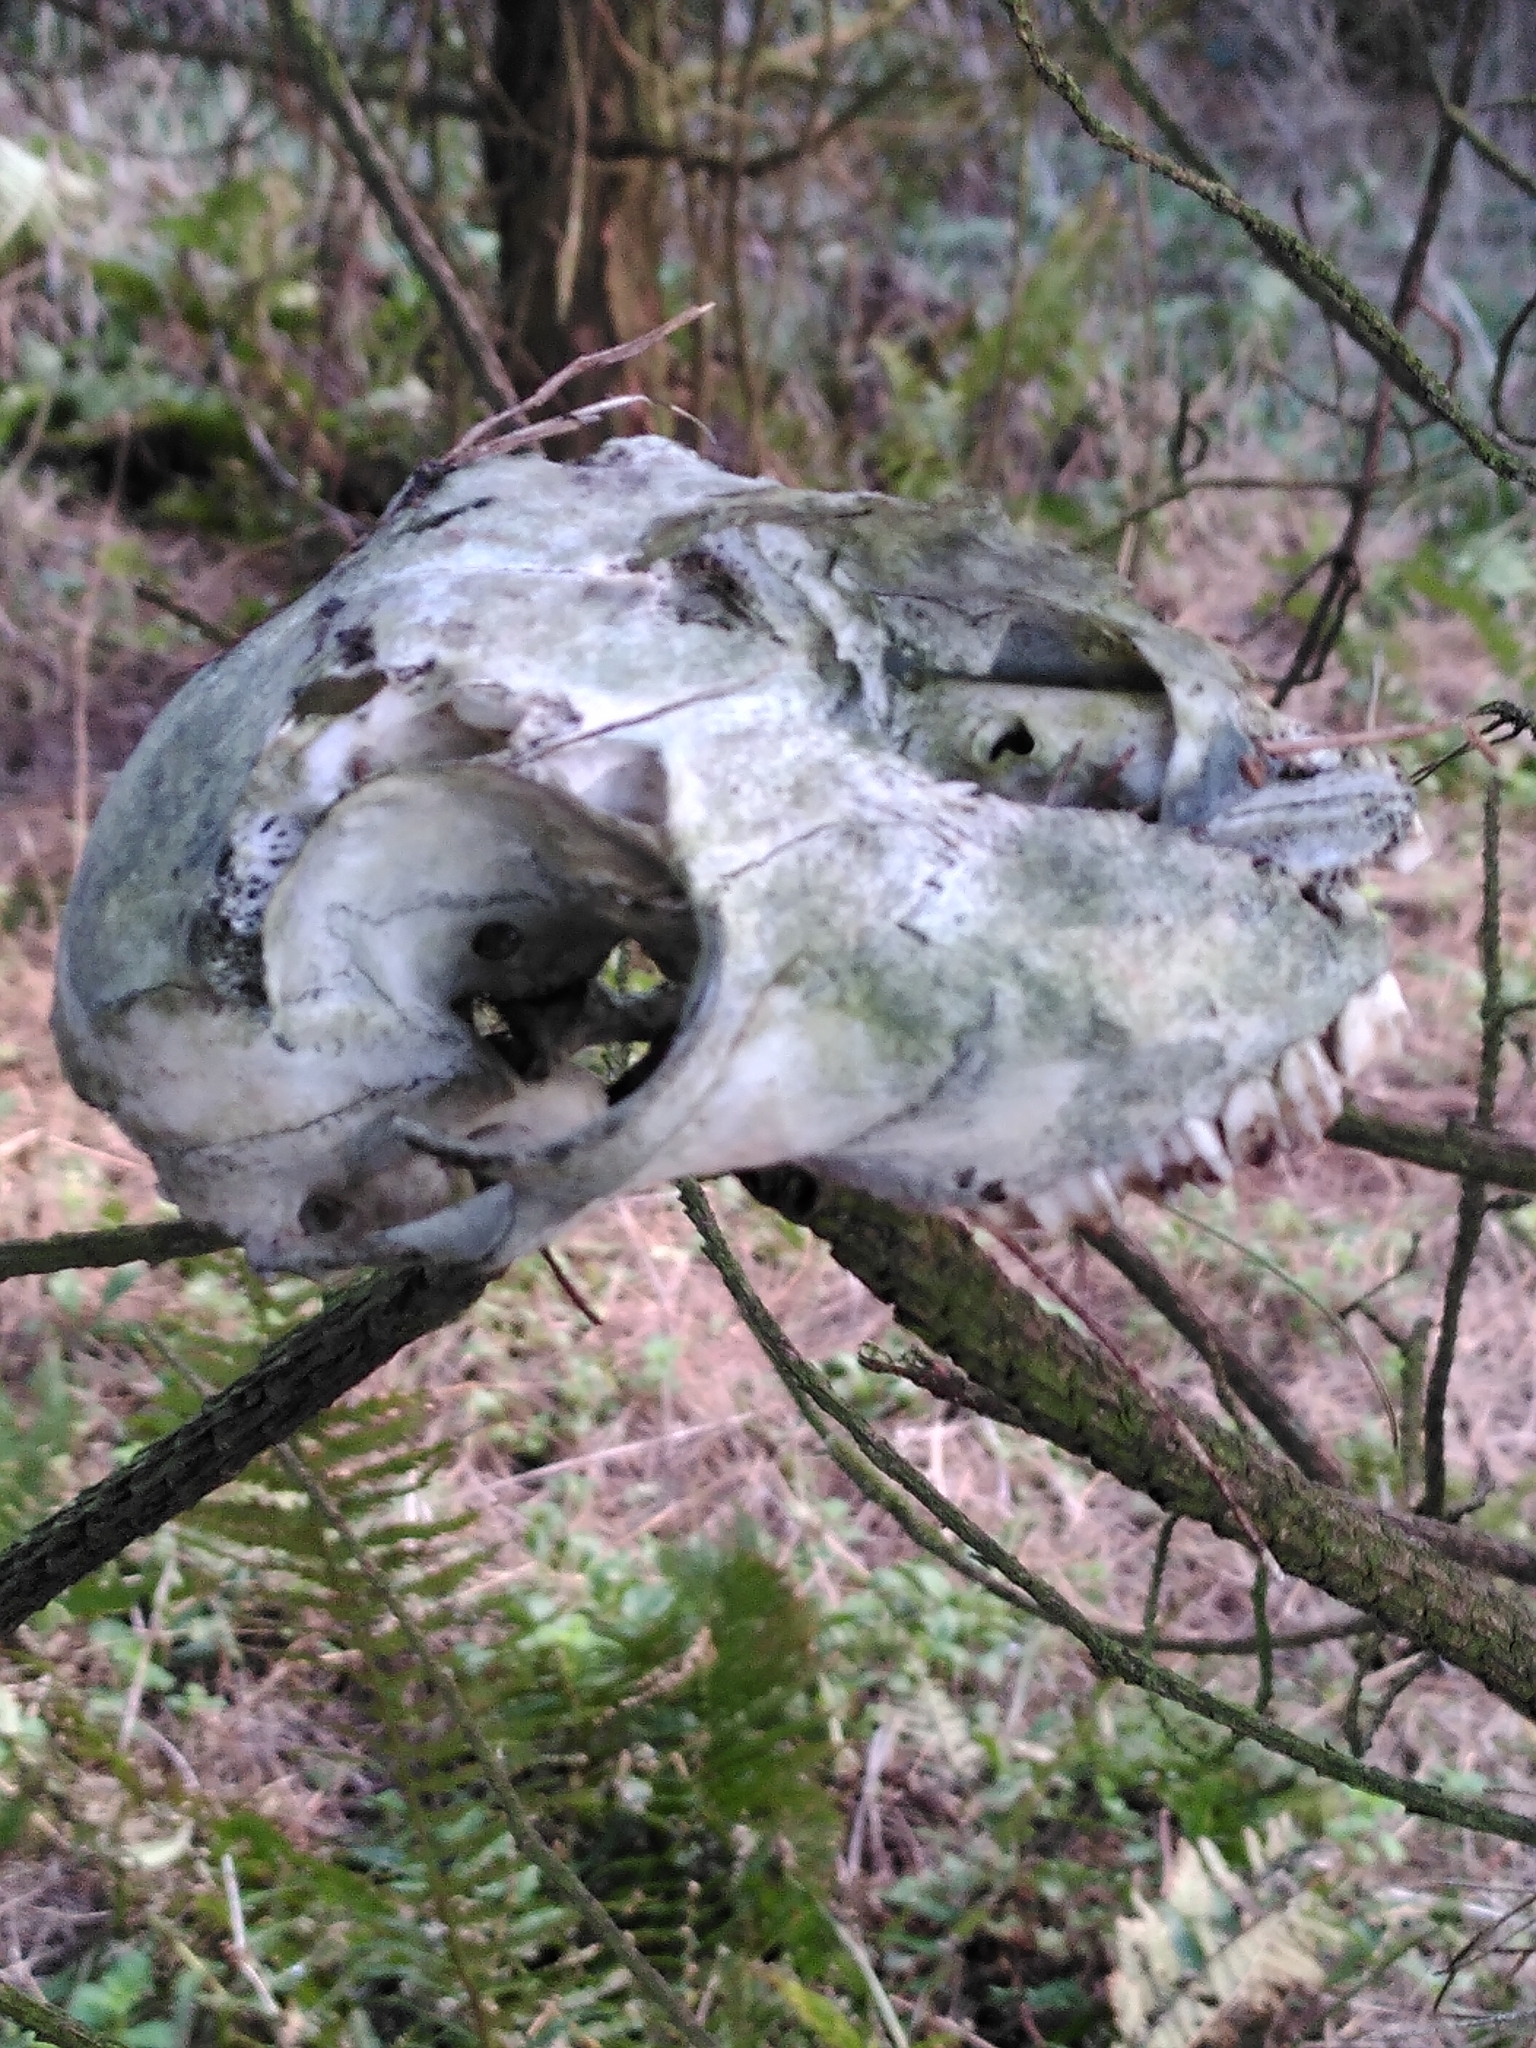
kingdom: Animalia
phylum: Chordata
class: Mammalia
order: Artiodactyla
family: Bovidae
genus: Ovis
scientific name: Ovis aries
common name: Domestic sheep
